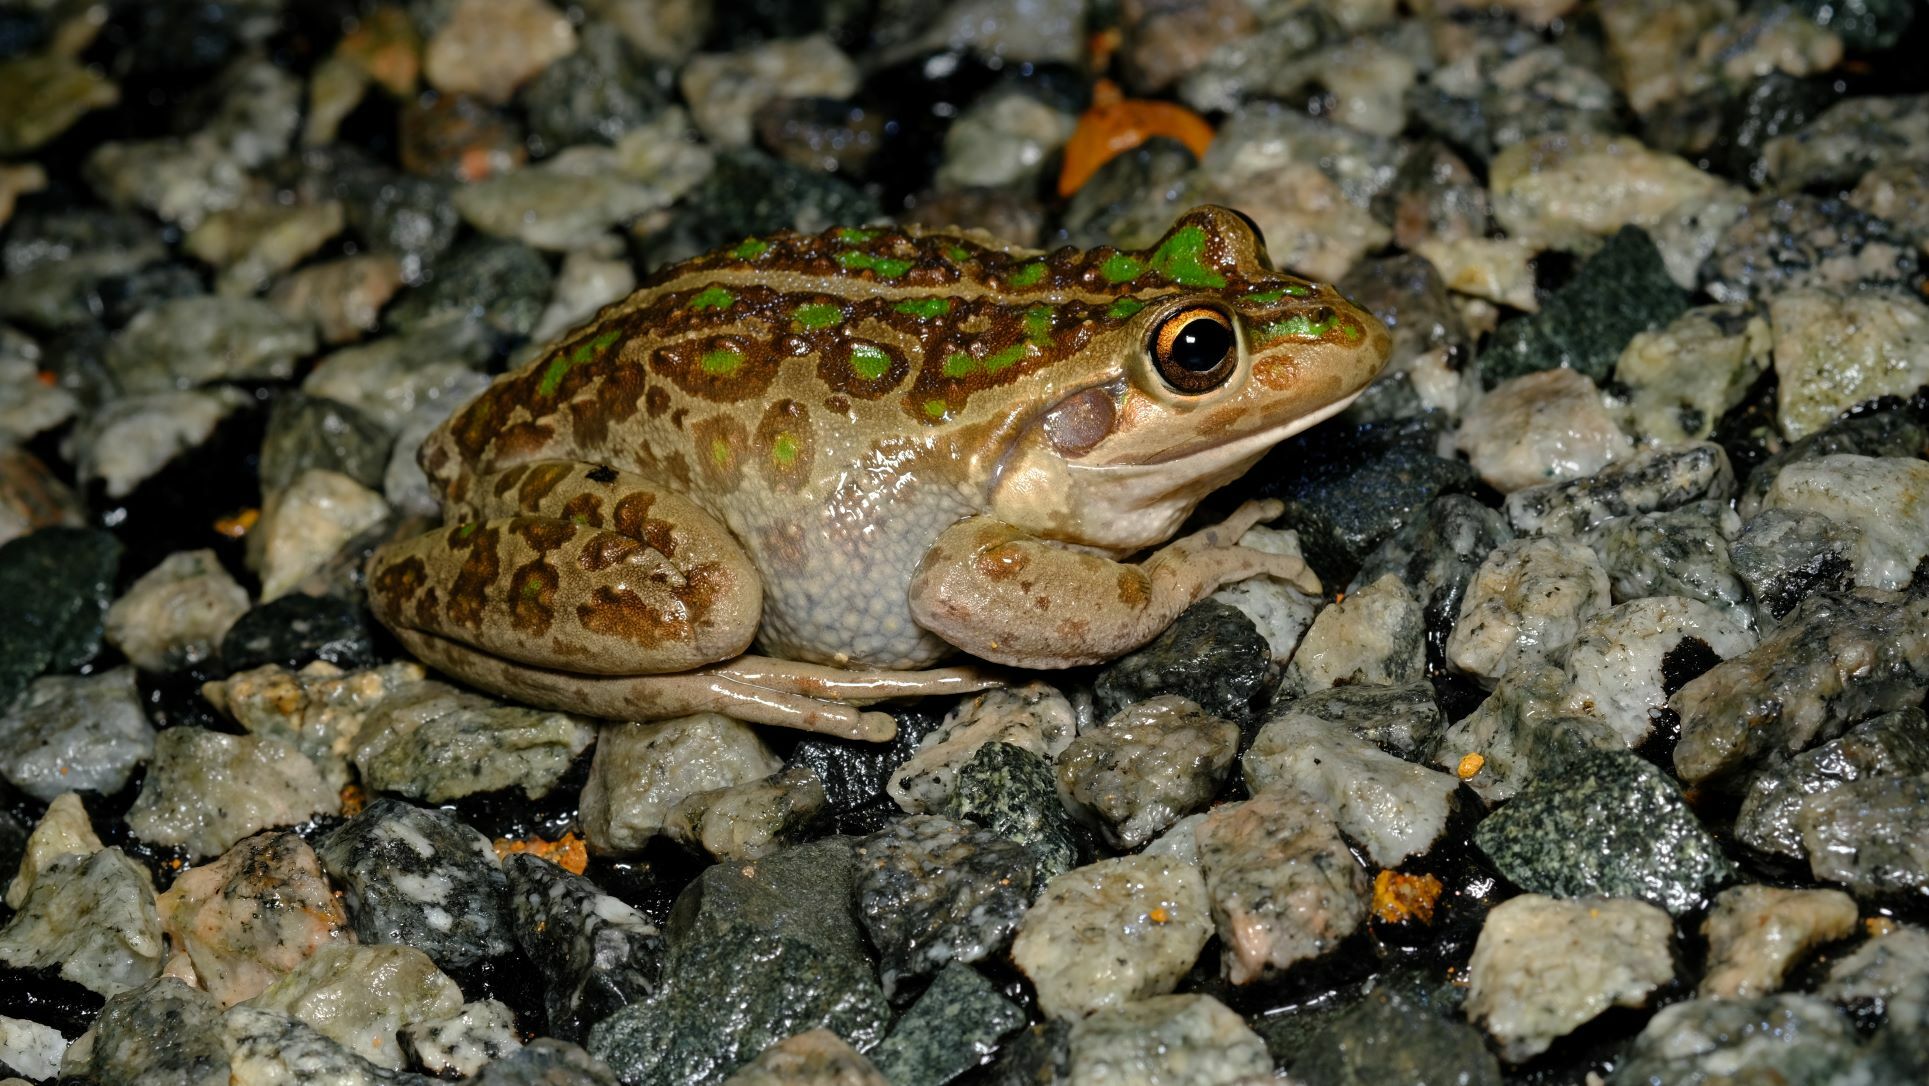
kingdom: Animalia
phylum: Chordata
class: Amphibia
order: Anura
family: Pelodryadidae
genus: Ranoidea
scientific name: Ranoidea moorei
